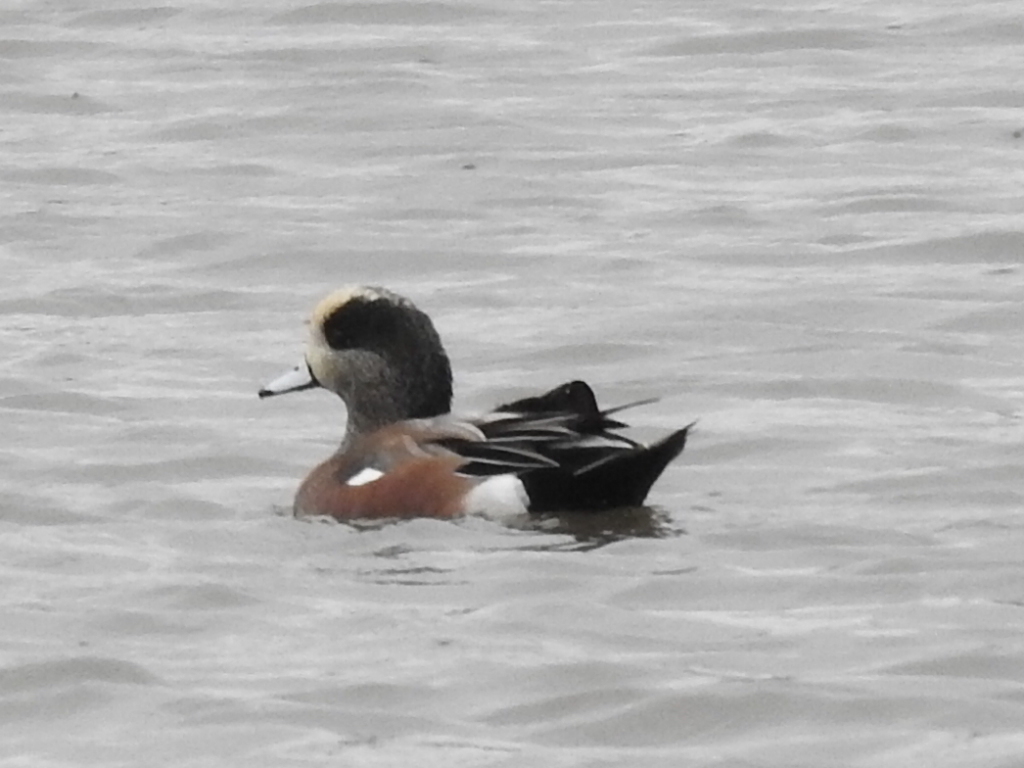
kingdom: Animalia
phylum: Chordata
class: Aves
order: Anseriformes
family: Anatidae
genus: Mareca
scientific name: Mareca americana
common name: American wigeon
